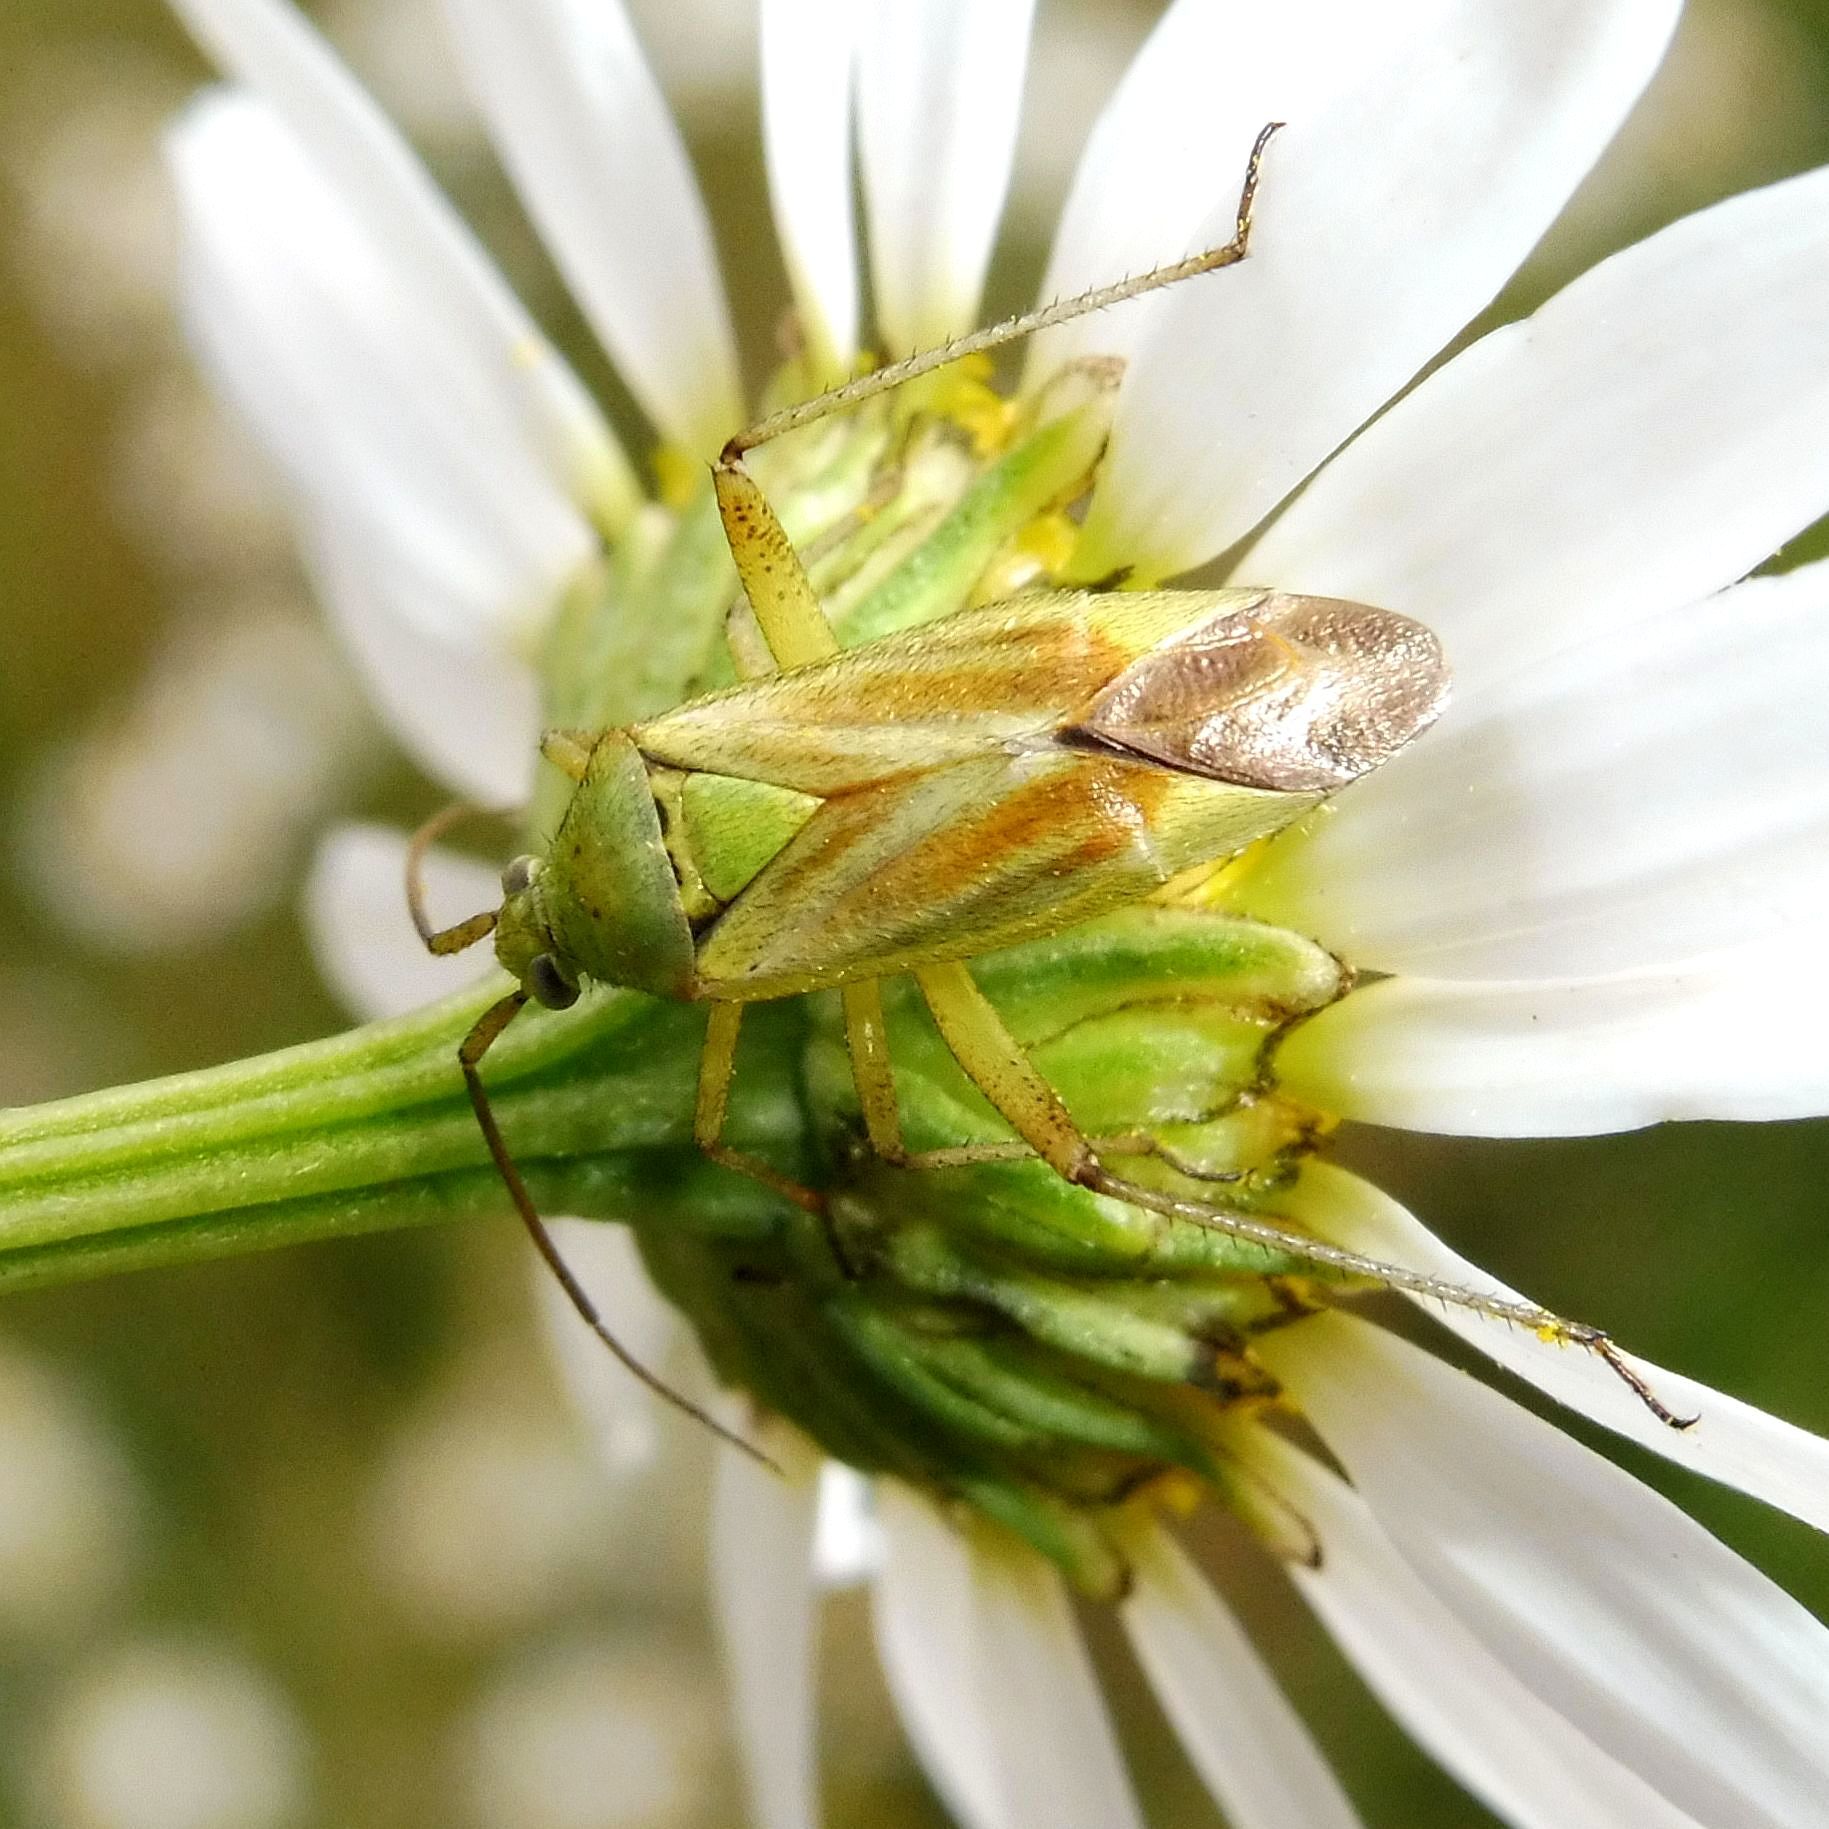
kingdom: Animalia
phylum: Arthropoda
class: Insecta
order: Hemiptera
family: Miridae
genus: Closterotomus
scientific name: Closterotomus norvegicus
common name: Plant bug
